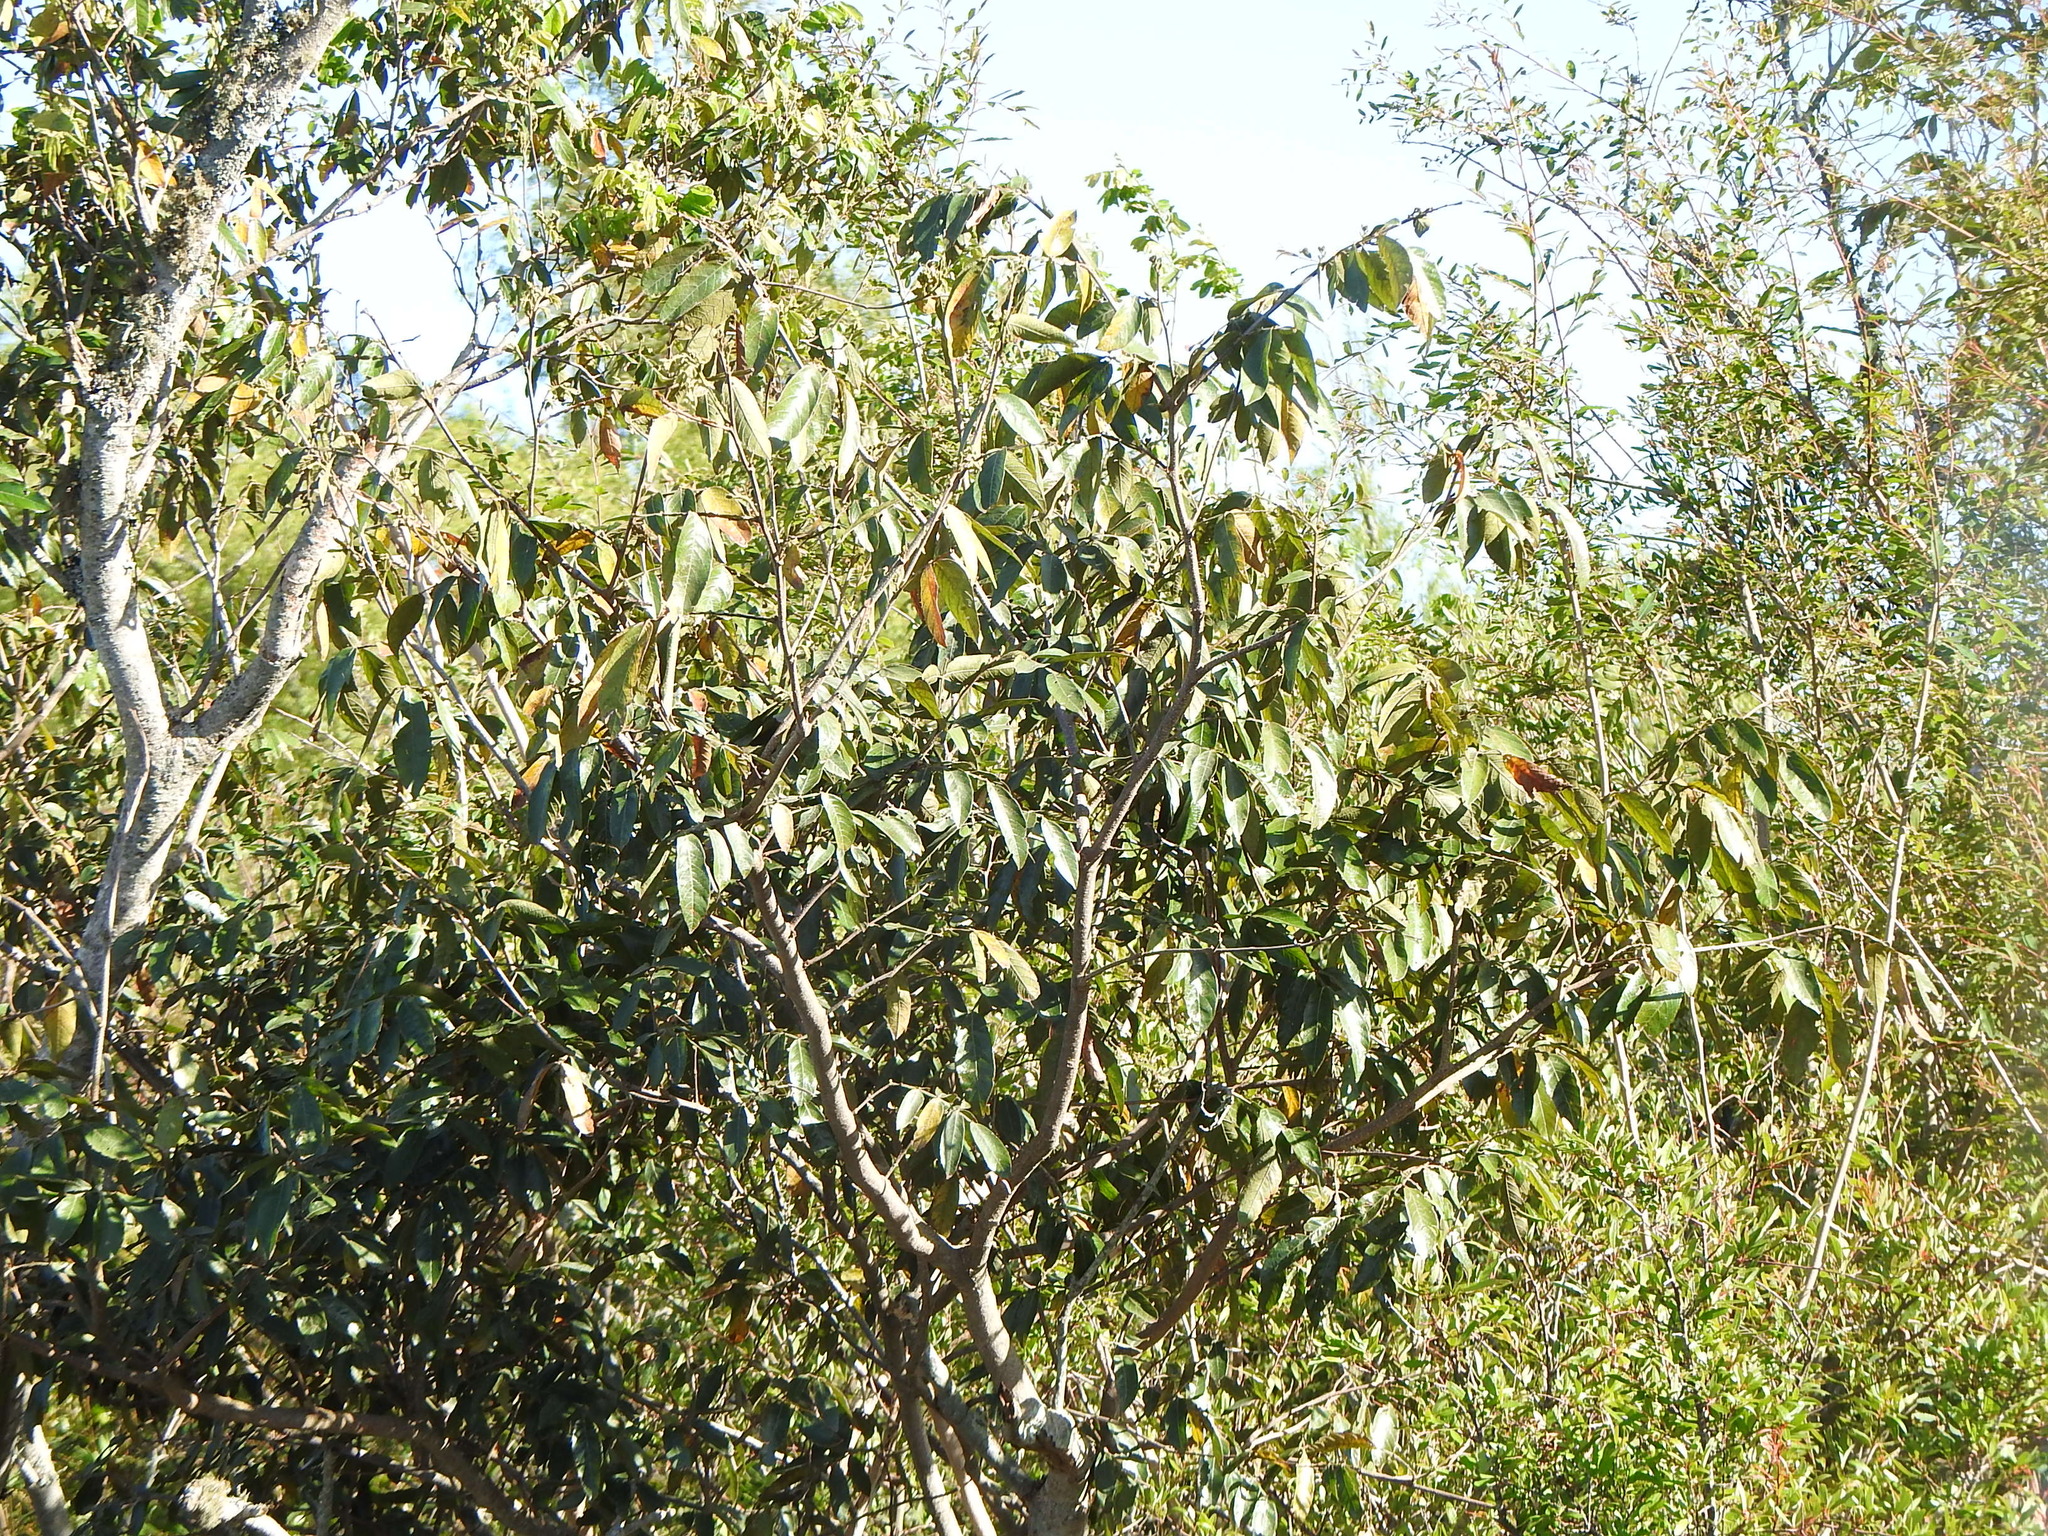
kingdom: Plantae
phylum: Tracheophyta
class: Magnoliopsida
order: Malvales
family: Malvaceae
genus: Luehea
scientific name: Luehea divaricata
